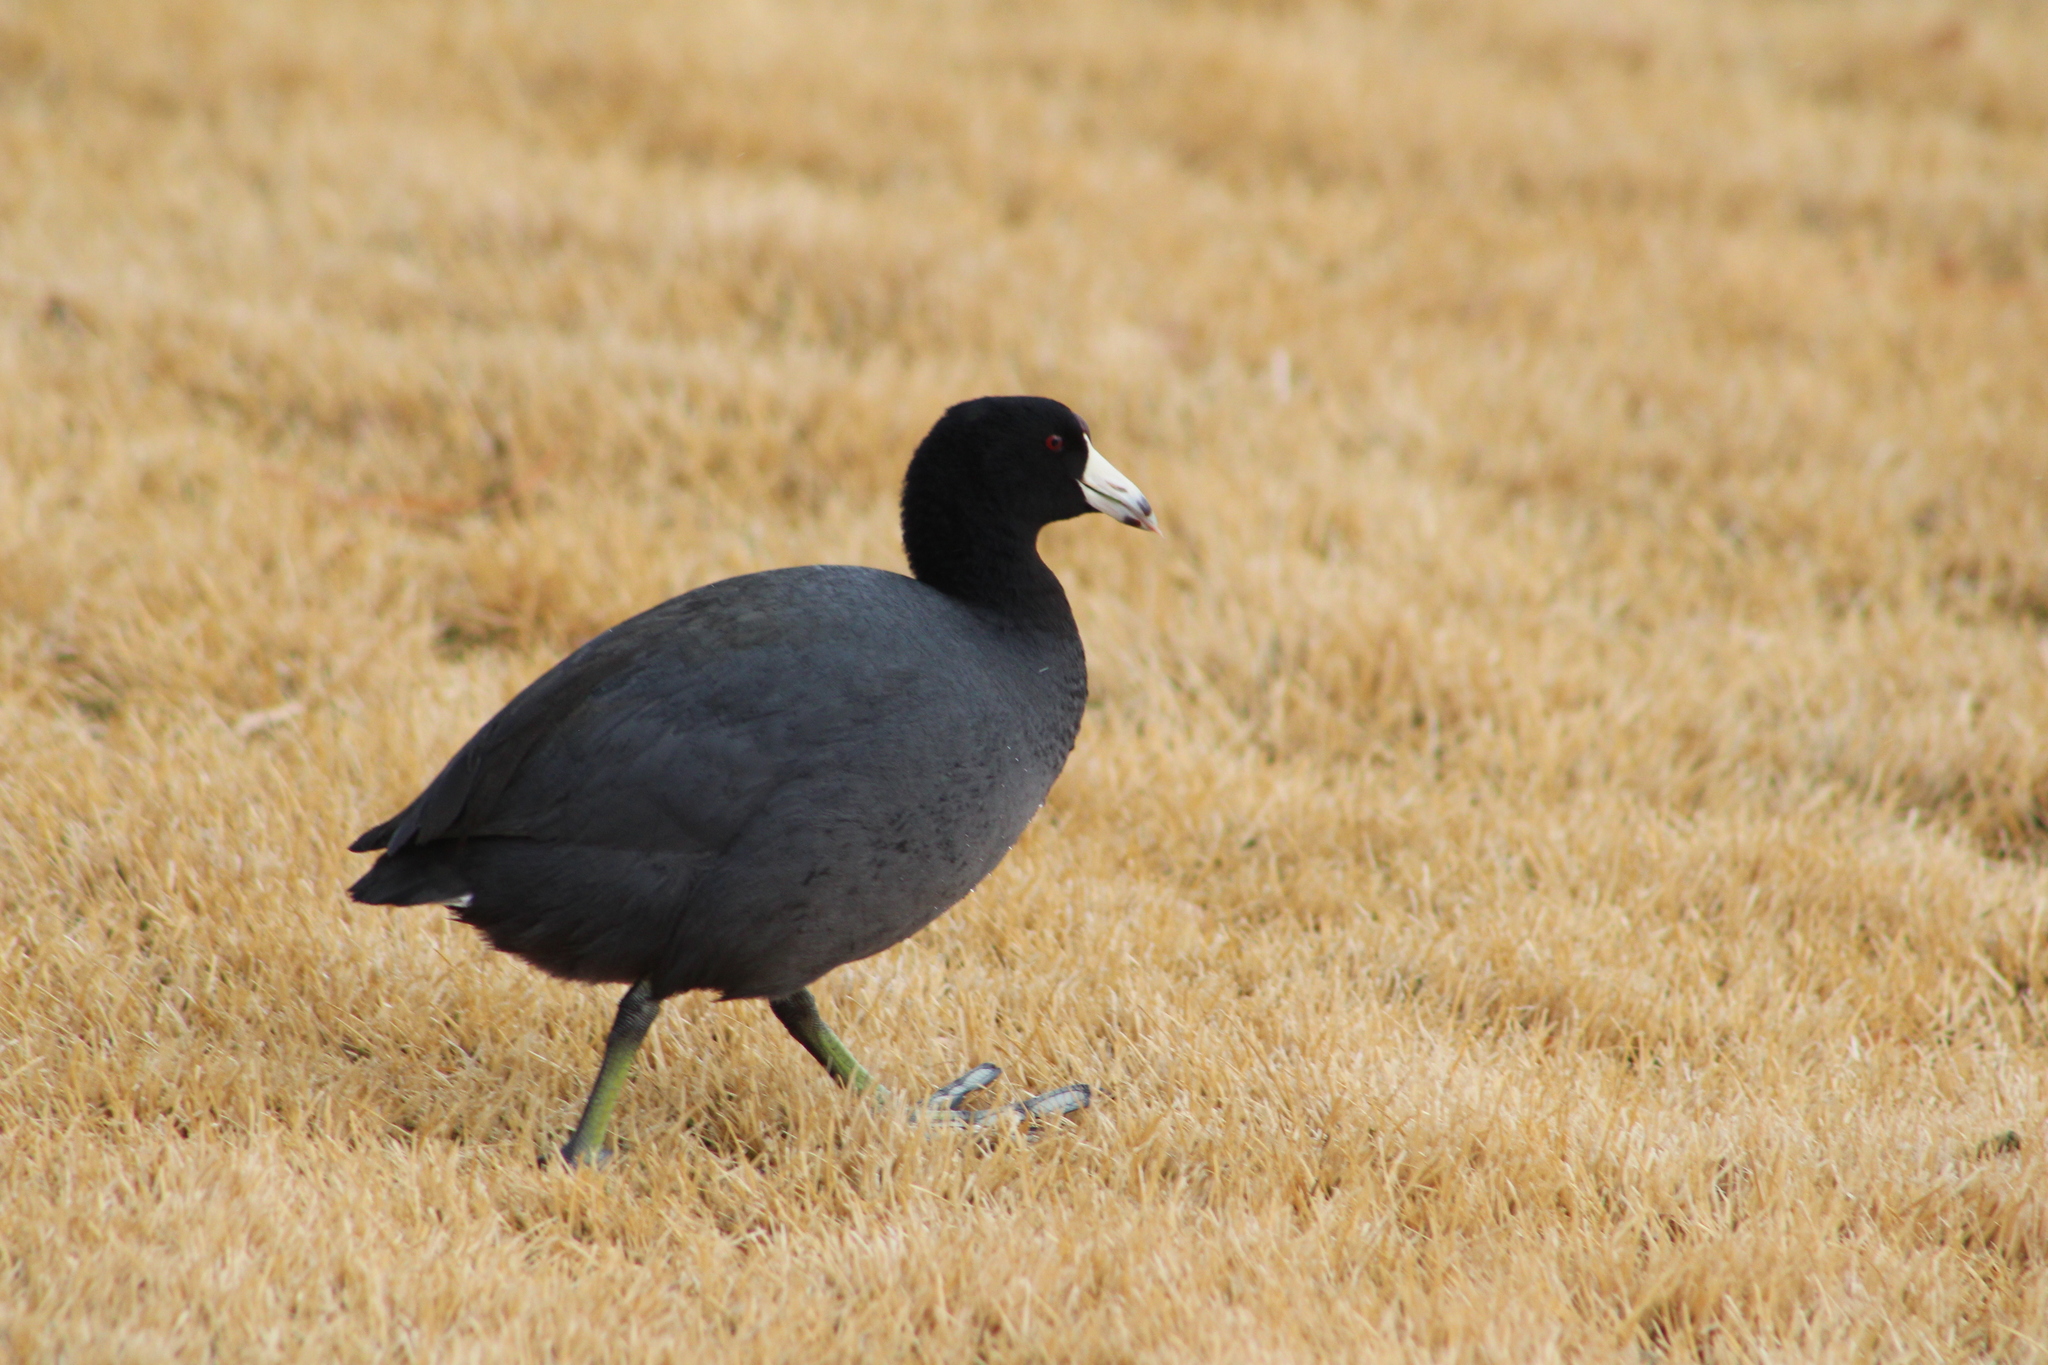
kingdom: Animalia
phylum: Chordata
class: Aves
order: Gruiformes
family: Rallidae
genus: Fulica
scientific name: Fulica americana
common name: American coot
